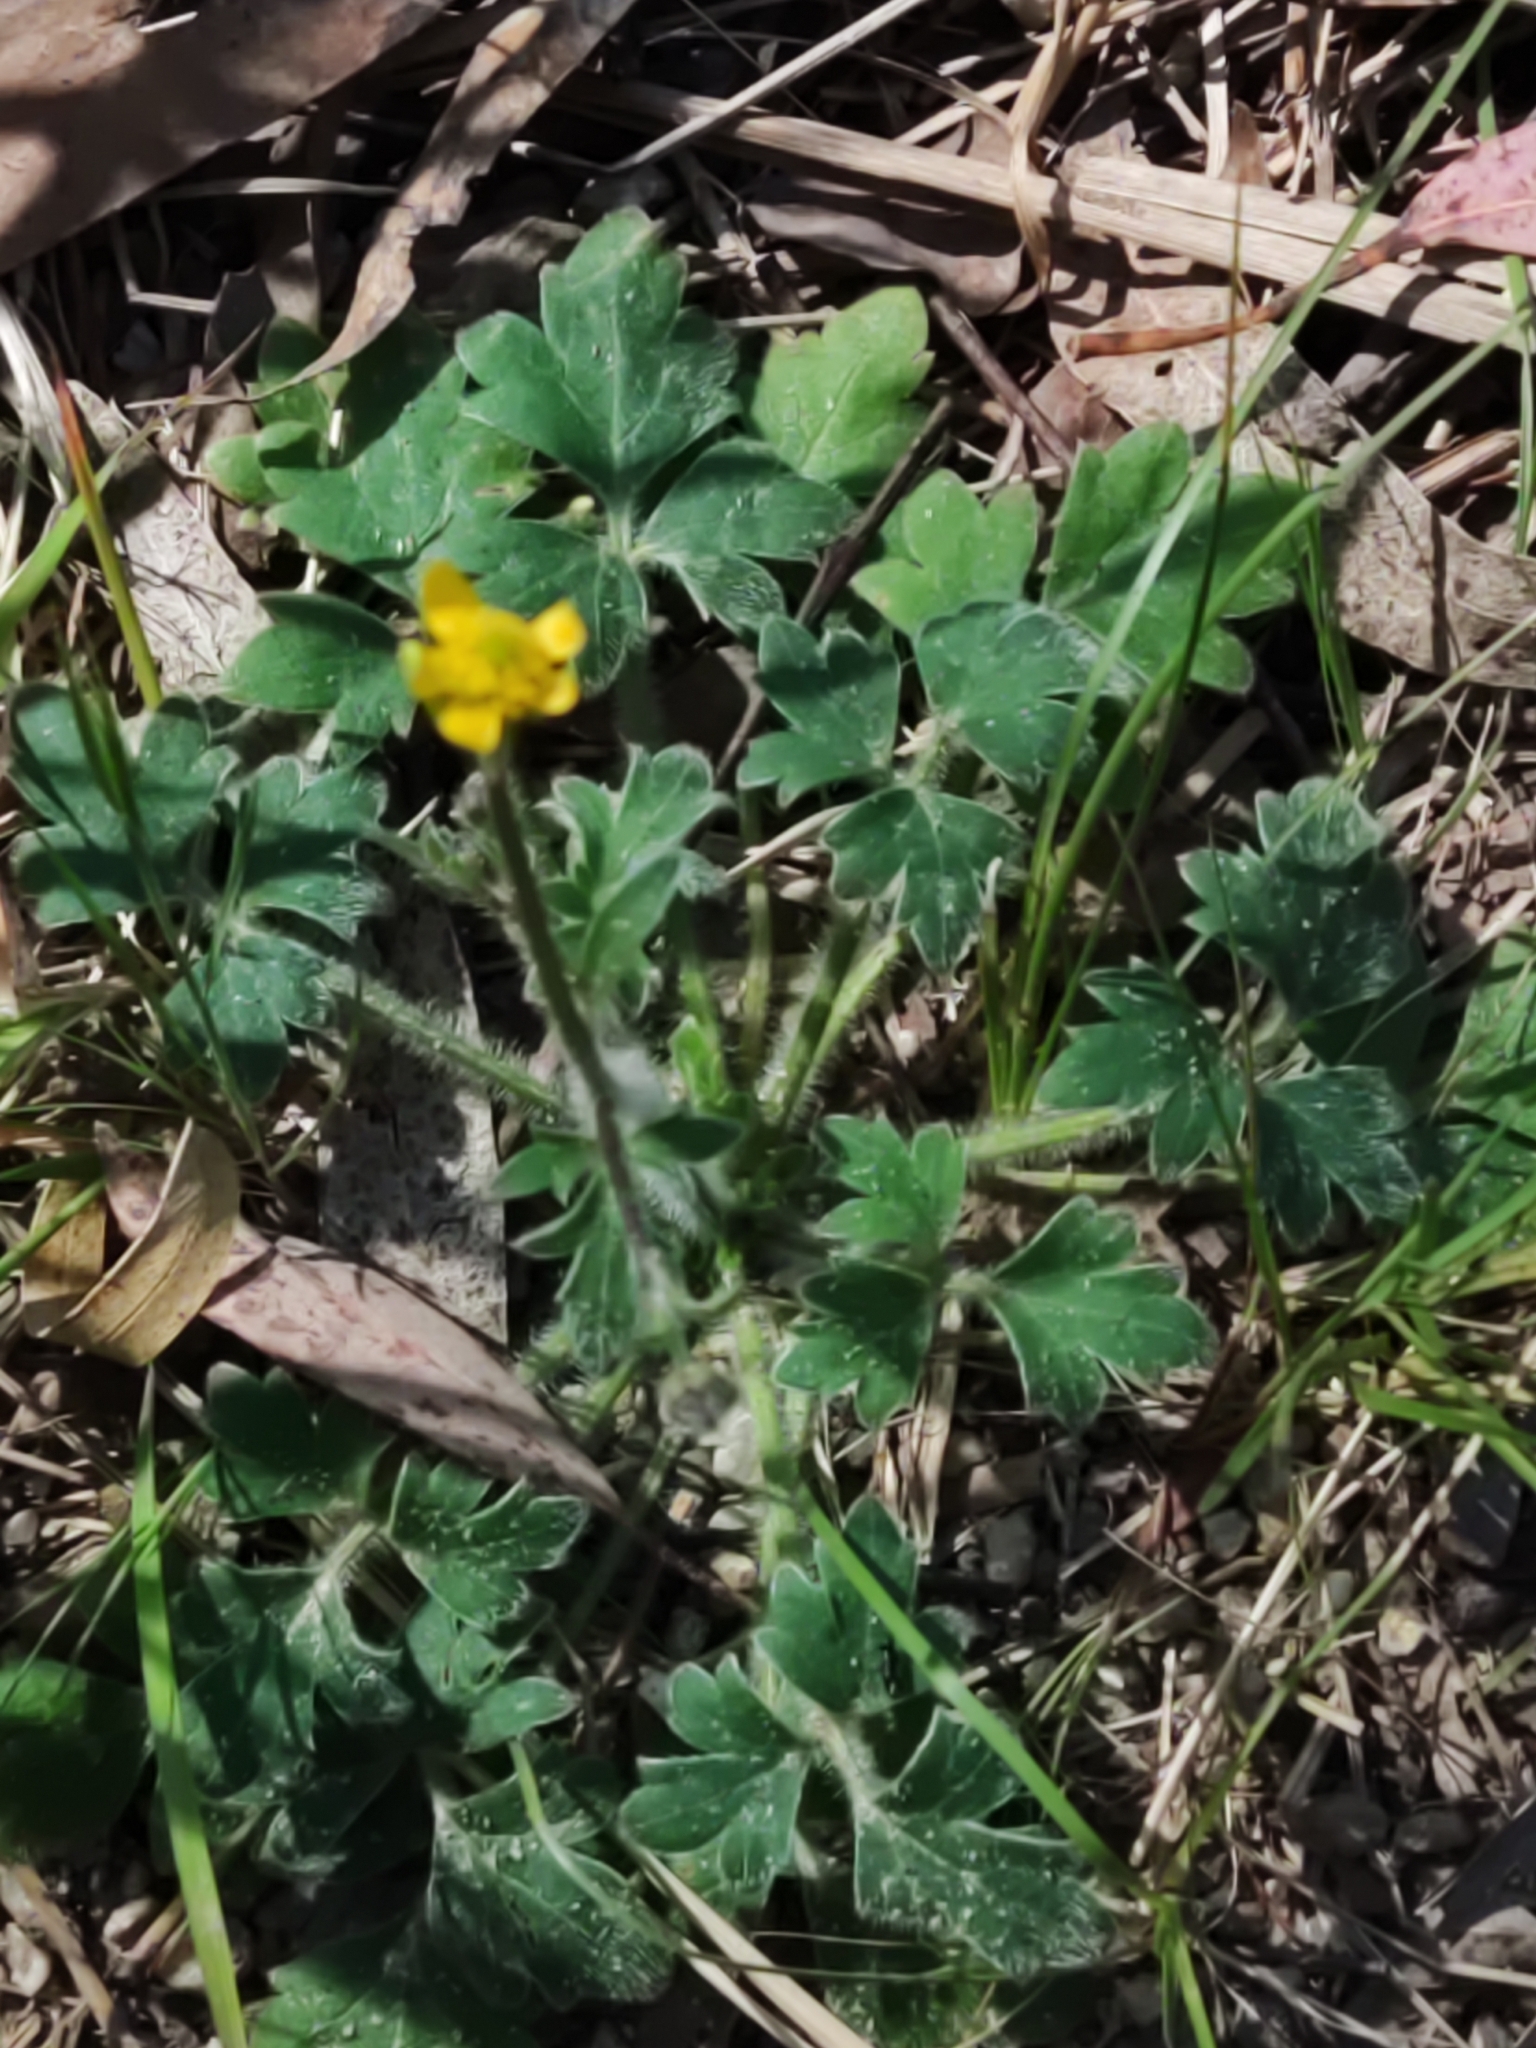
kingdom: Plantae
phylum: Tracheophyta
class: Magnoliopsida
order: Ranunculales
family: Ranunculaceae
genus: Ranunculus
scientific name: Ranunculus plebeius
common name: Common australian buttercup
